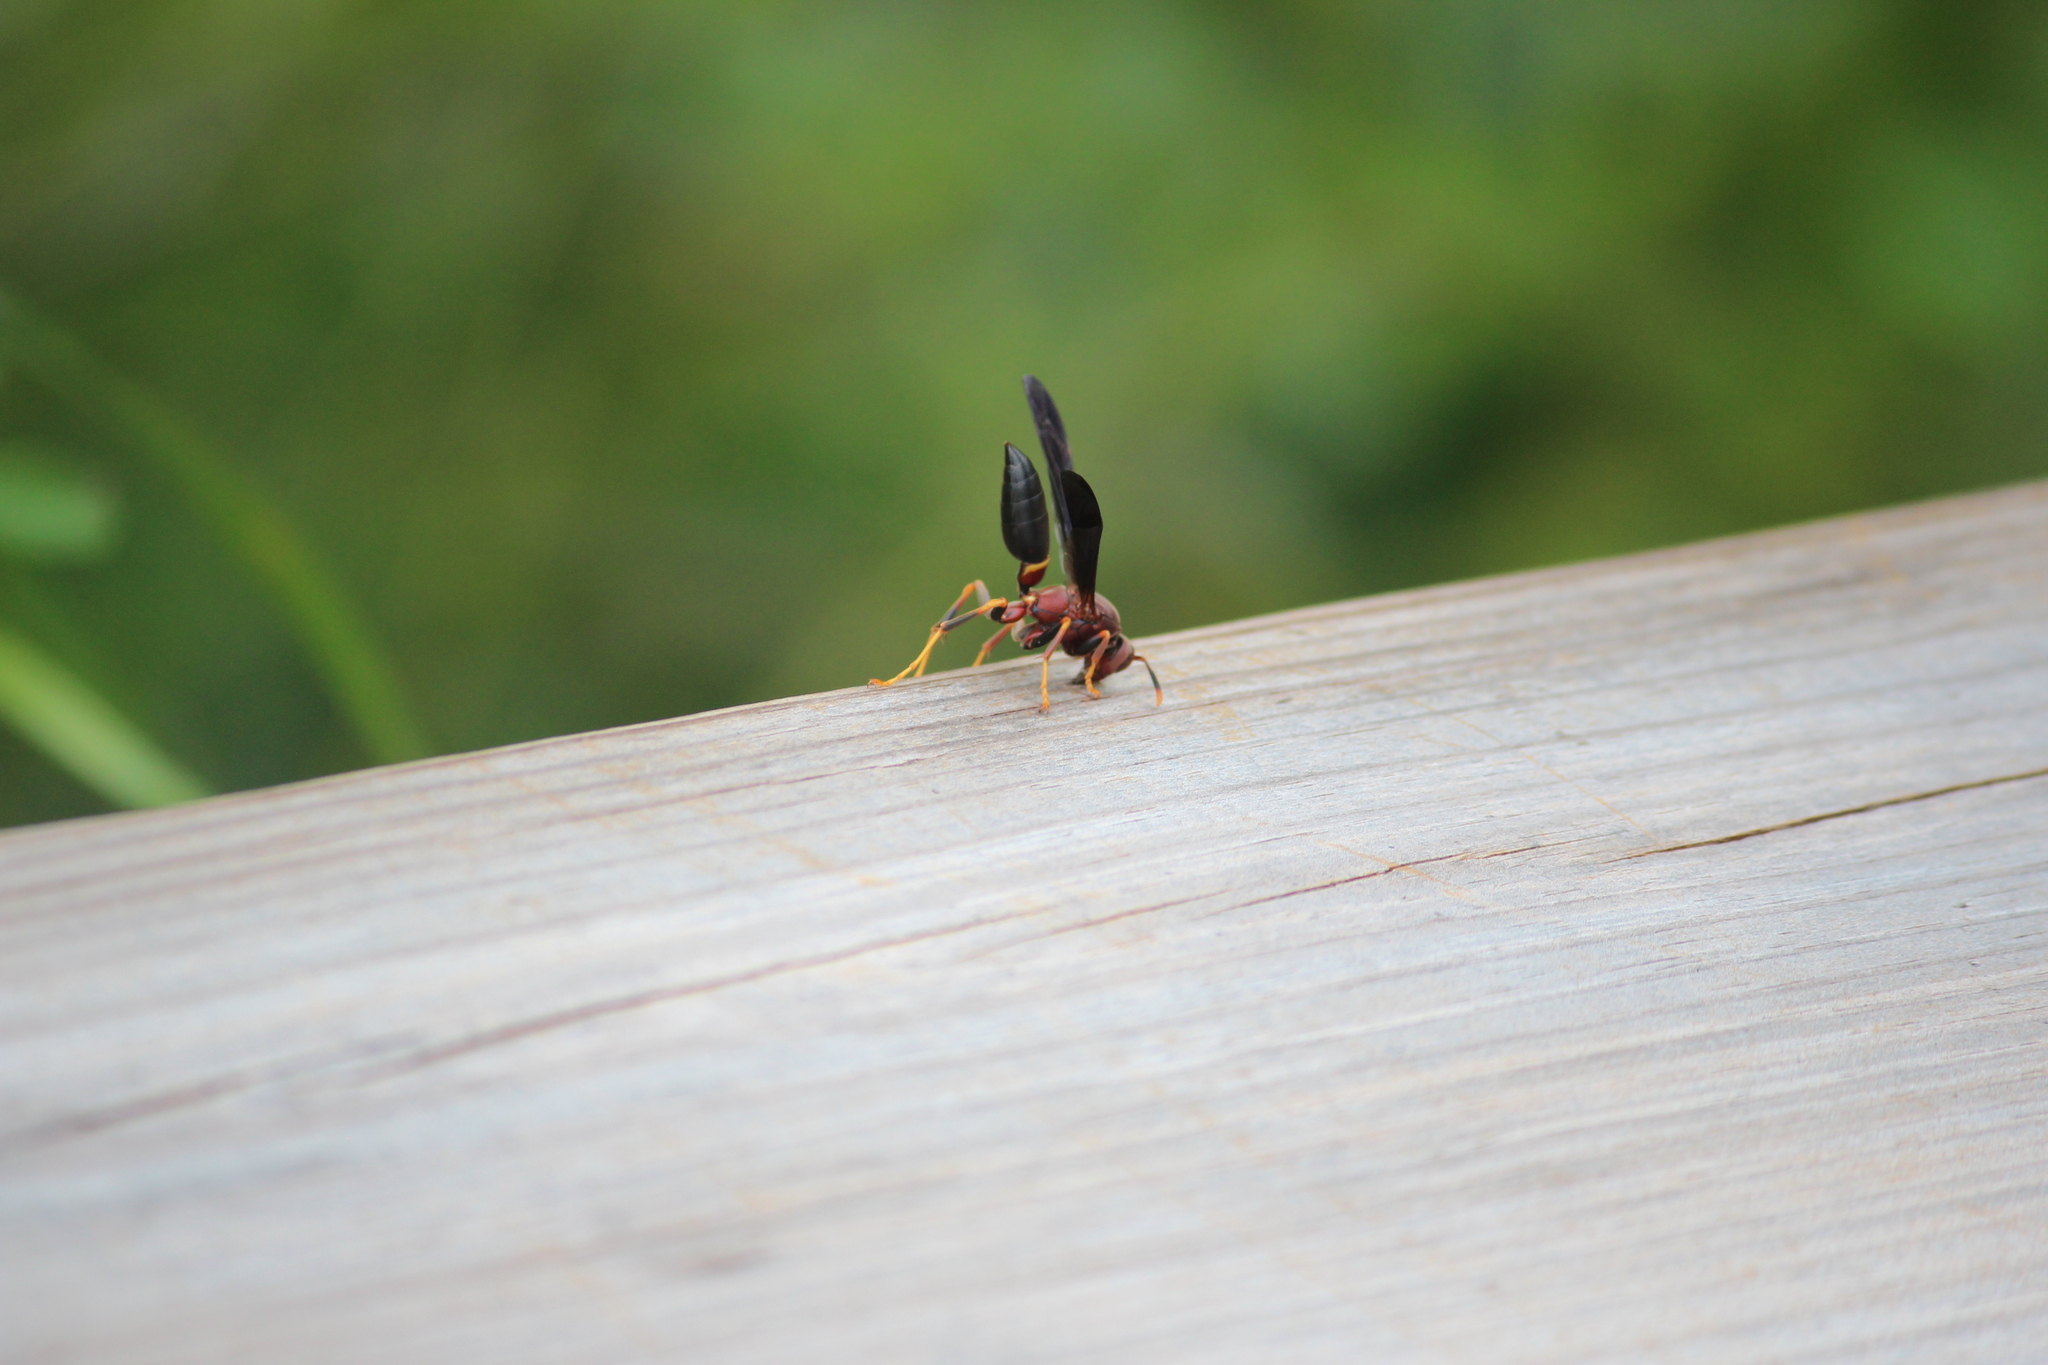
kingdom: Animalia
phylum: Arthropoda
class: Insecta
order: Hymenoptera
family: Eumenidae
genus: Polistes
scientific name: Polistes annularis
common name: Ringed paper wasp
